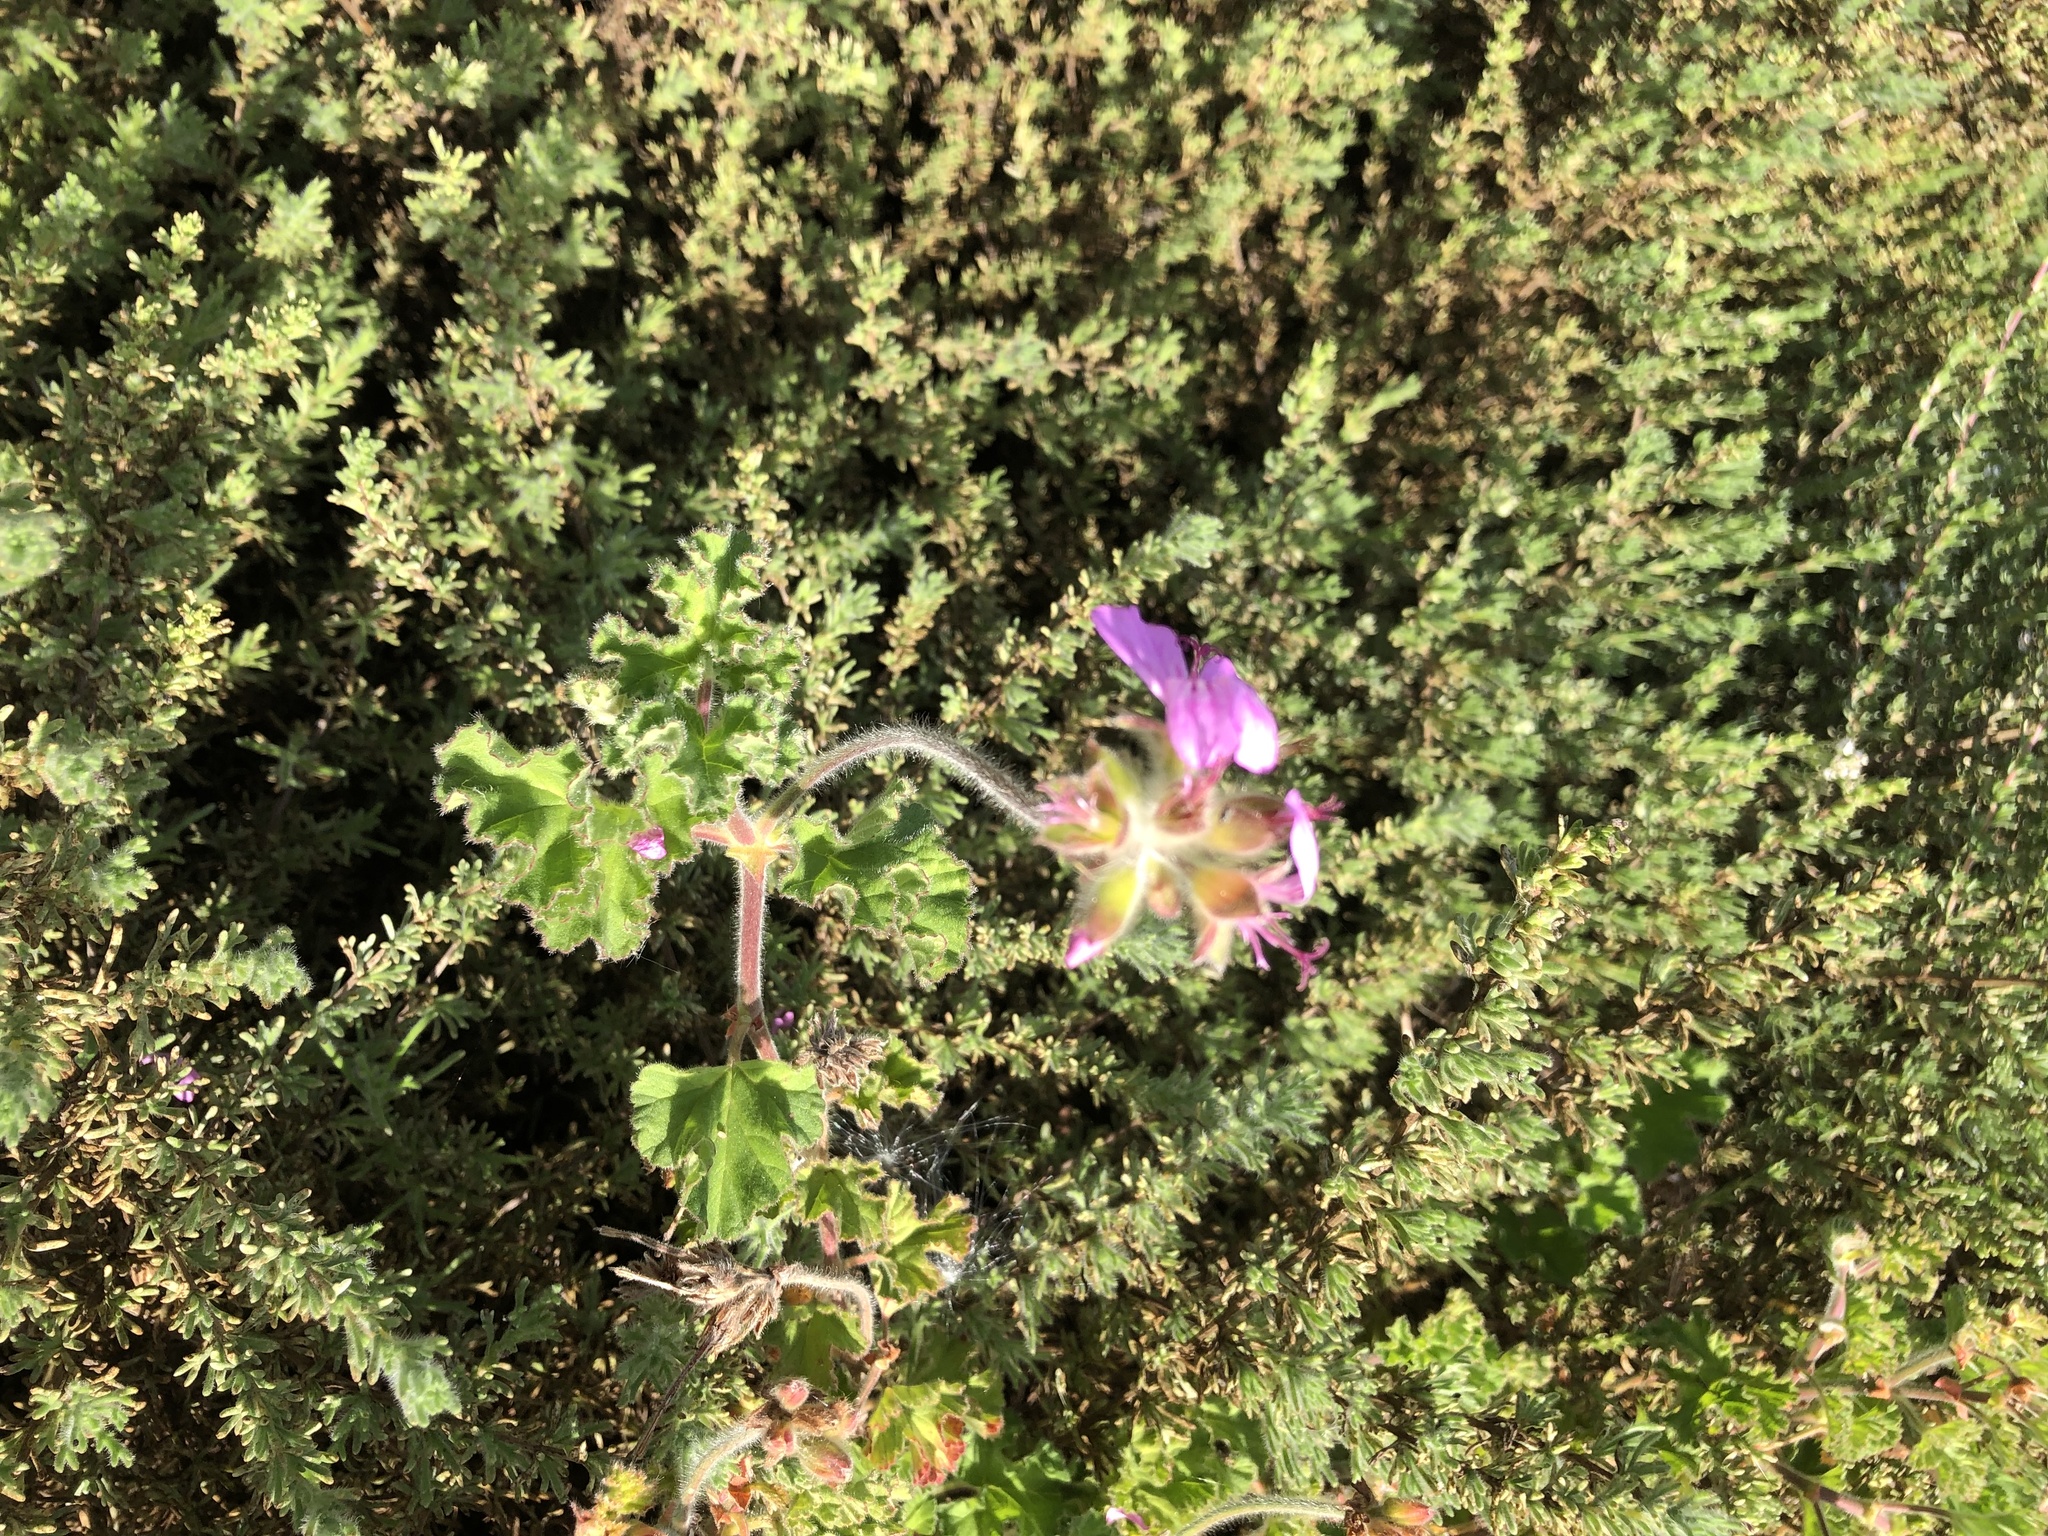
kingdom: Plantae
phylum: Tracheophyta
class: Magnoliopsida
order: Geraniales
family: Geraniaceae
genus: Pelargonium
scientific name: Pelargonium capitatum
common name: Rose scented geranium
